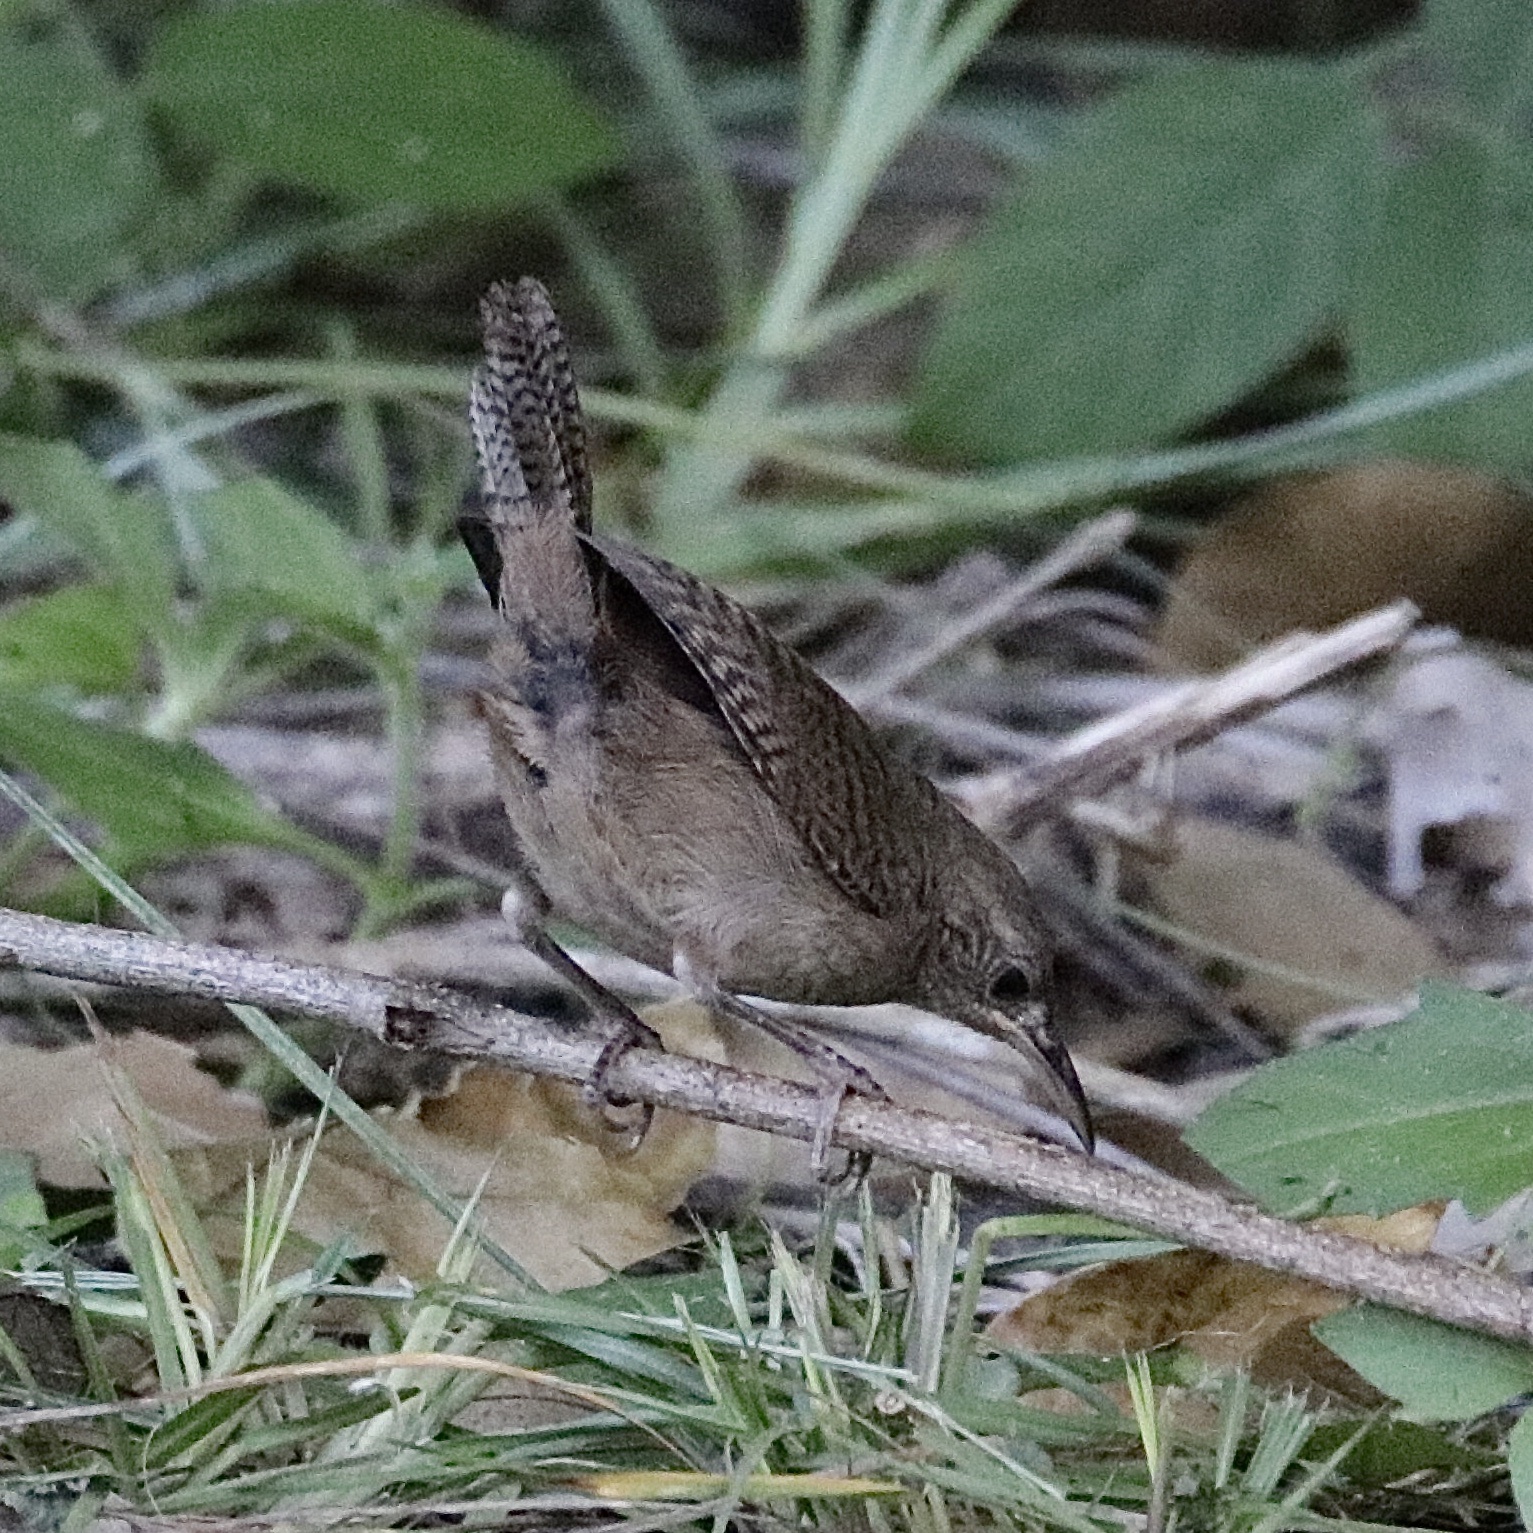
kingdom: Animalia
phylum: Chordata
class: Aves
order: Passeriformes
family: Troglodytidae
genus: Troglodytes
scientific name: Troglodytes aedon
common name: House wren
